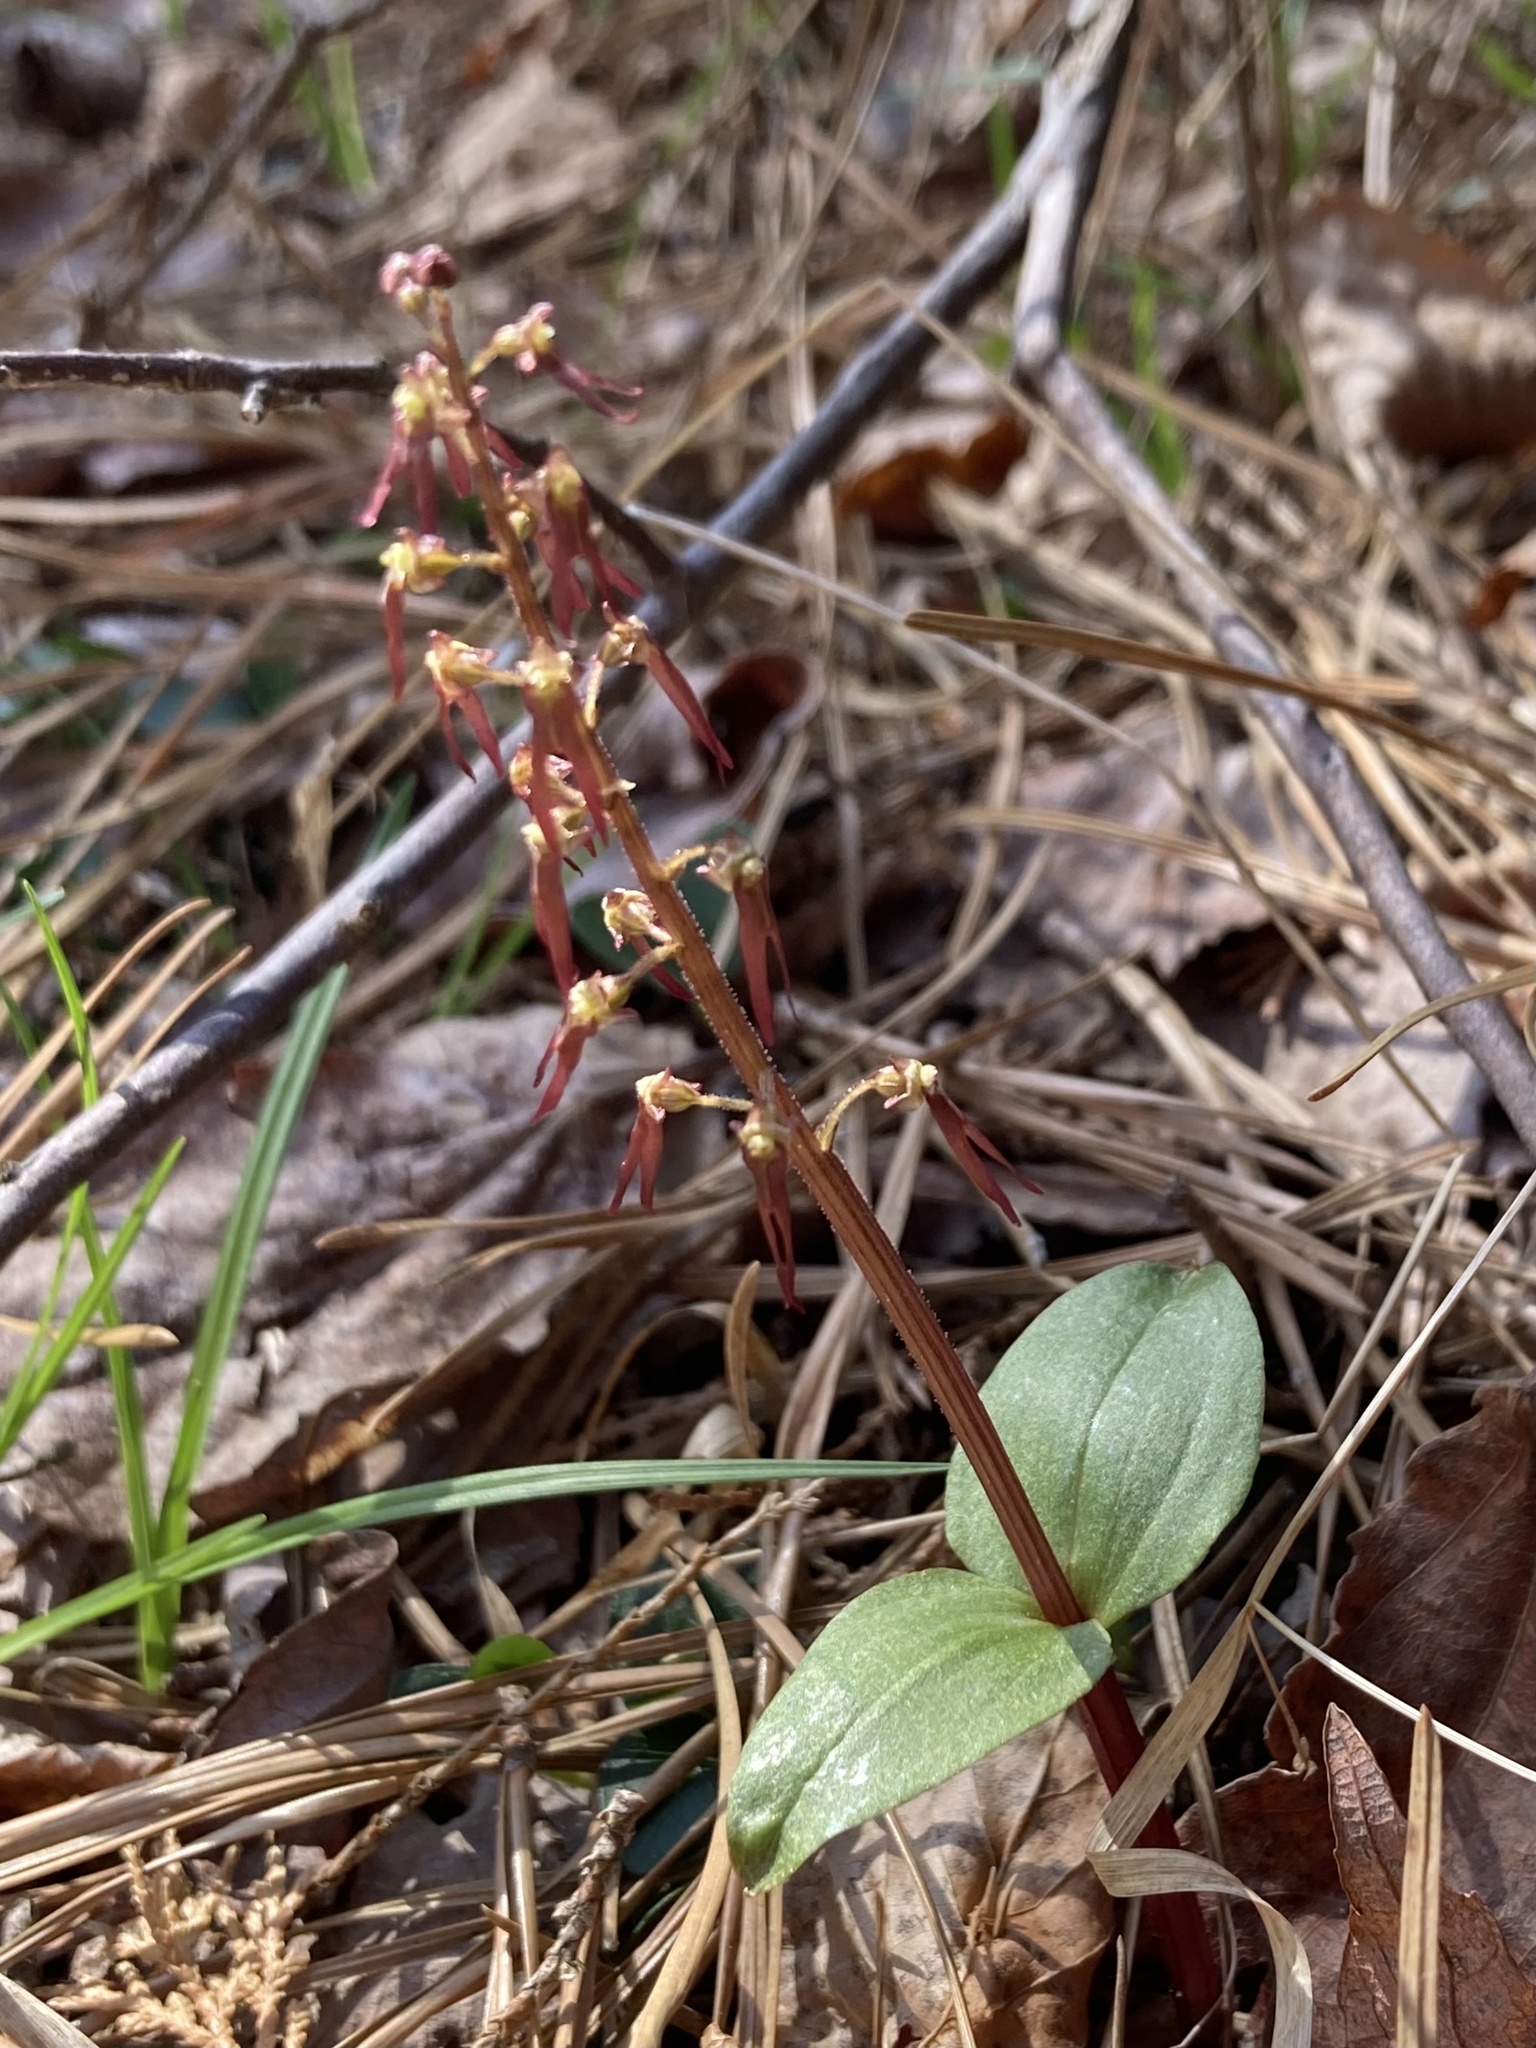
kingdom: Plantae
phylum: Tracheophyta
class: Liliopsida
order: Asparagales
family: Orchidaceae
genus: Neottia
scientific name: Neottia bifolia
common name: Southern twayblade
